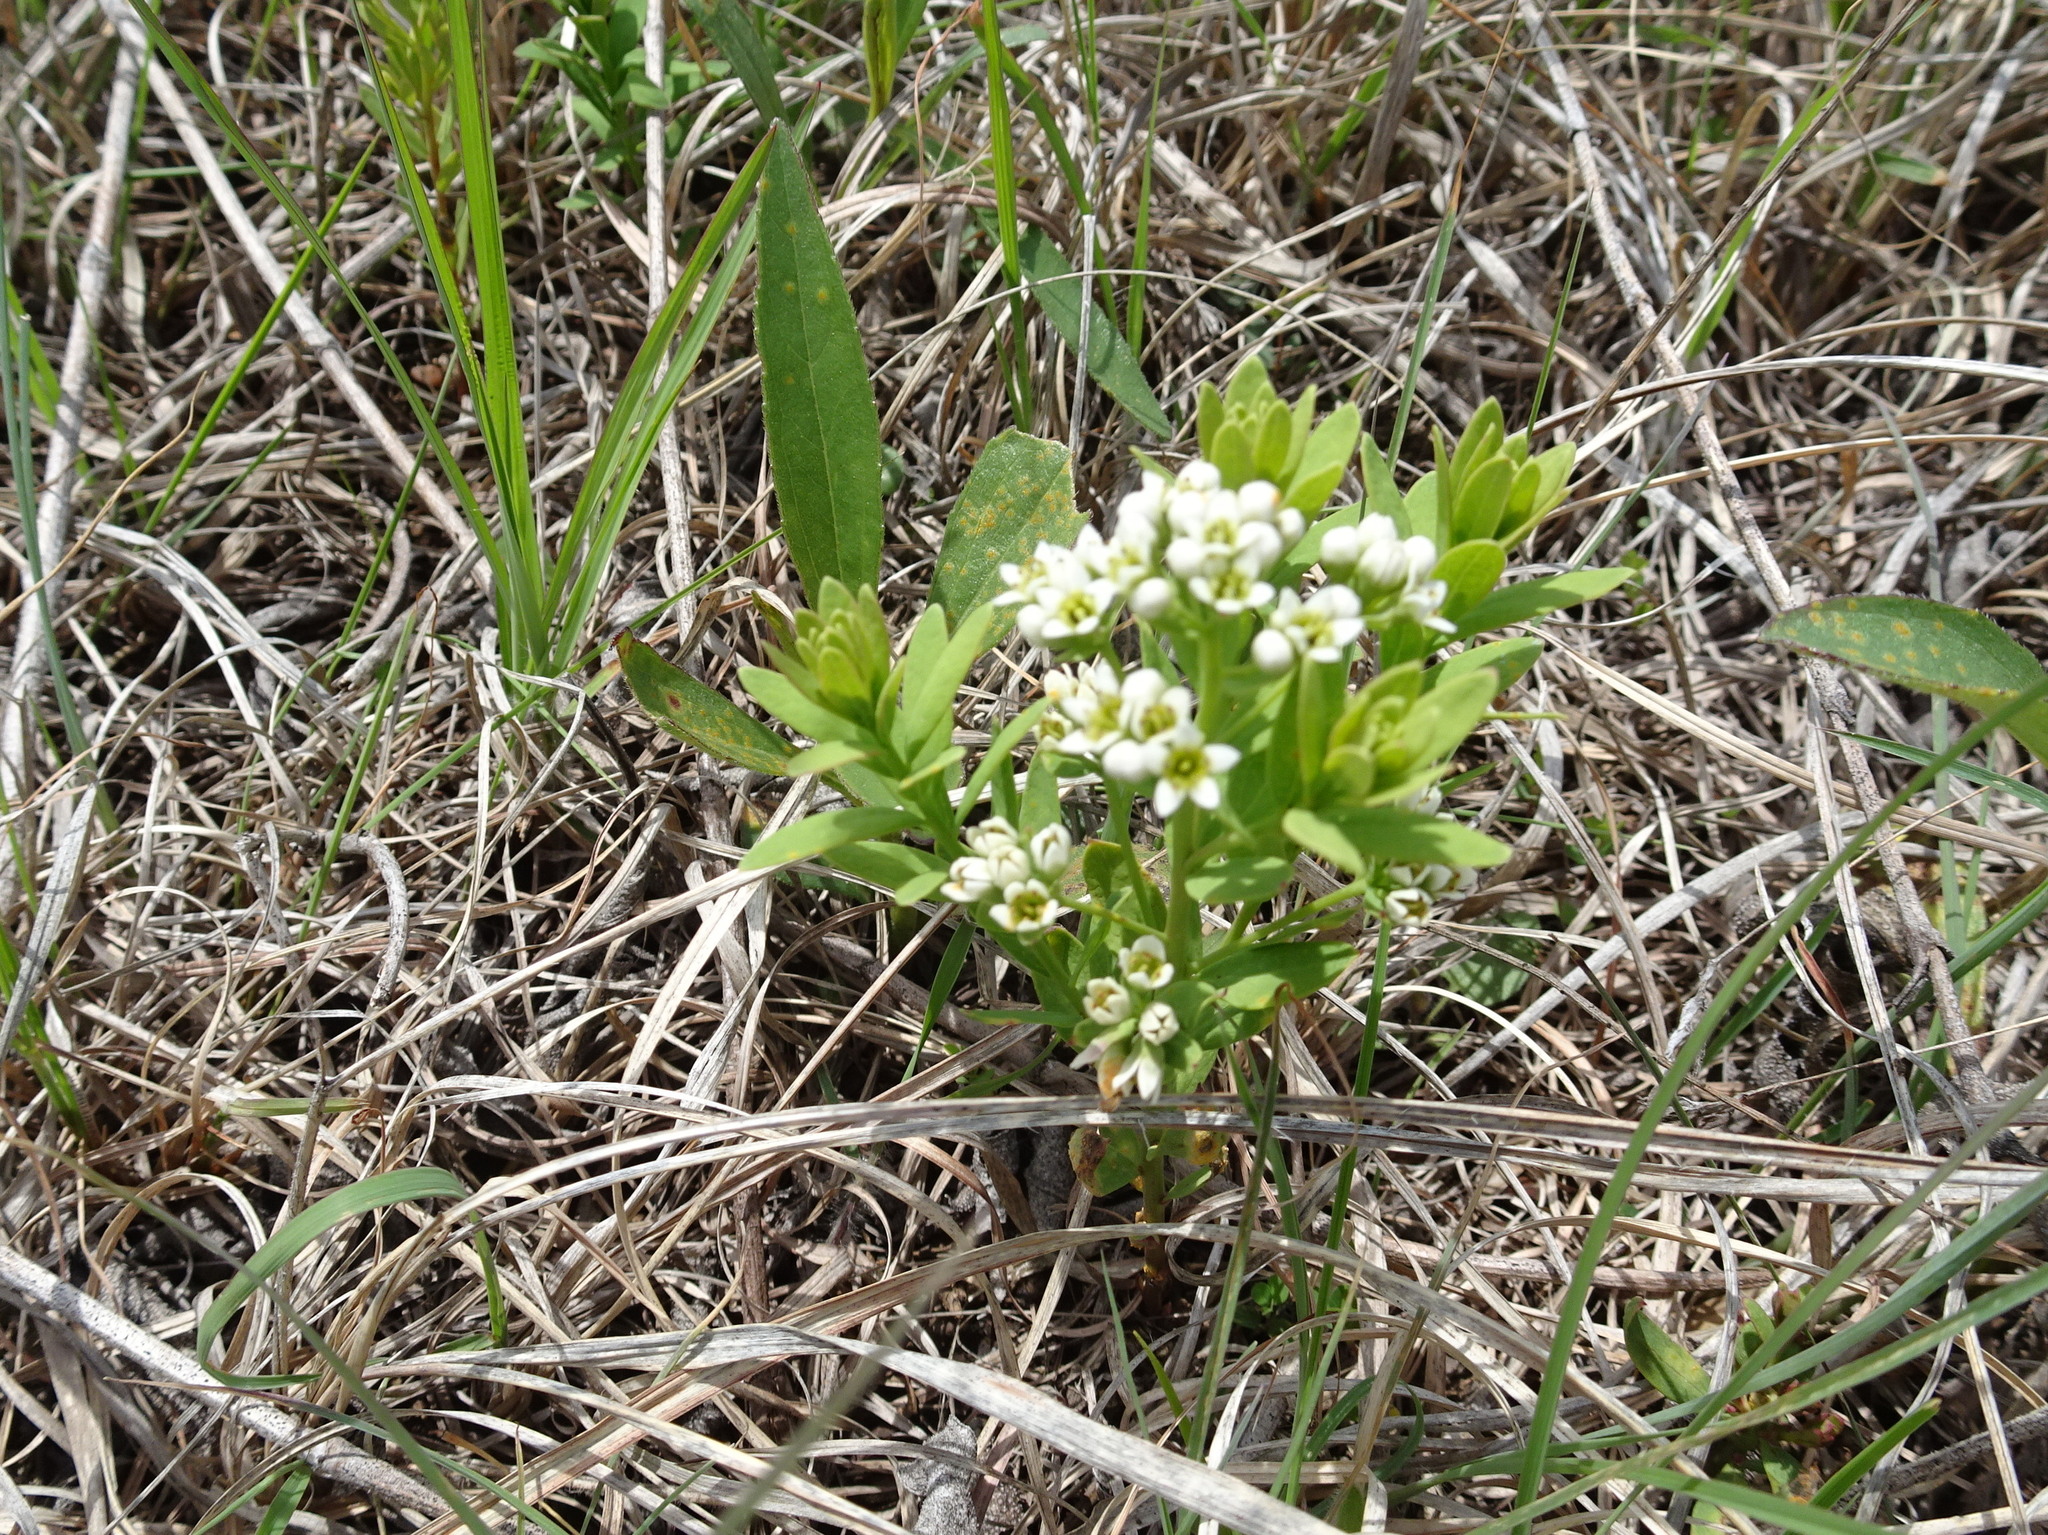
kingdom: Plantae
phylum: Tracheophyta
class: Magnoliopsida
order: Santalales
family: Comandraceae
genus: Comandra
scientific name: Comandra umbellata
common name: Bastard toadflax
